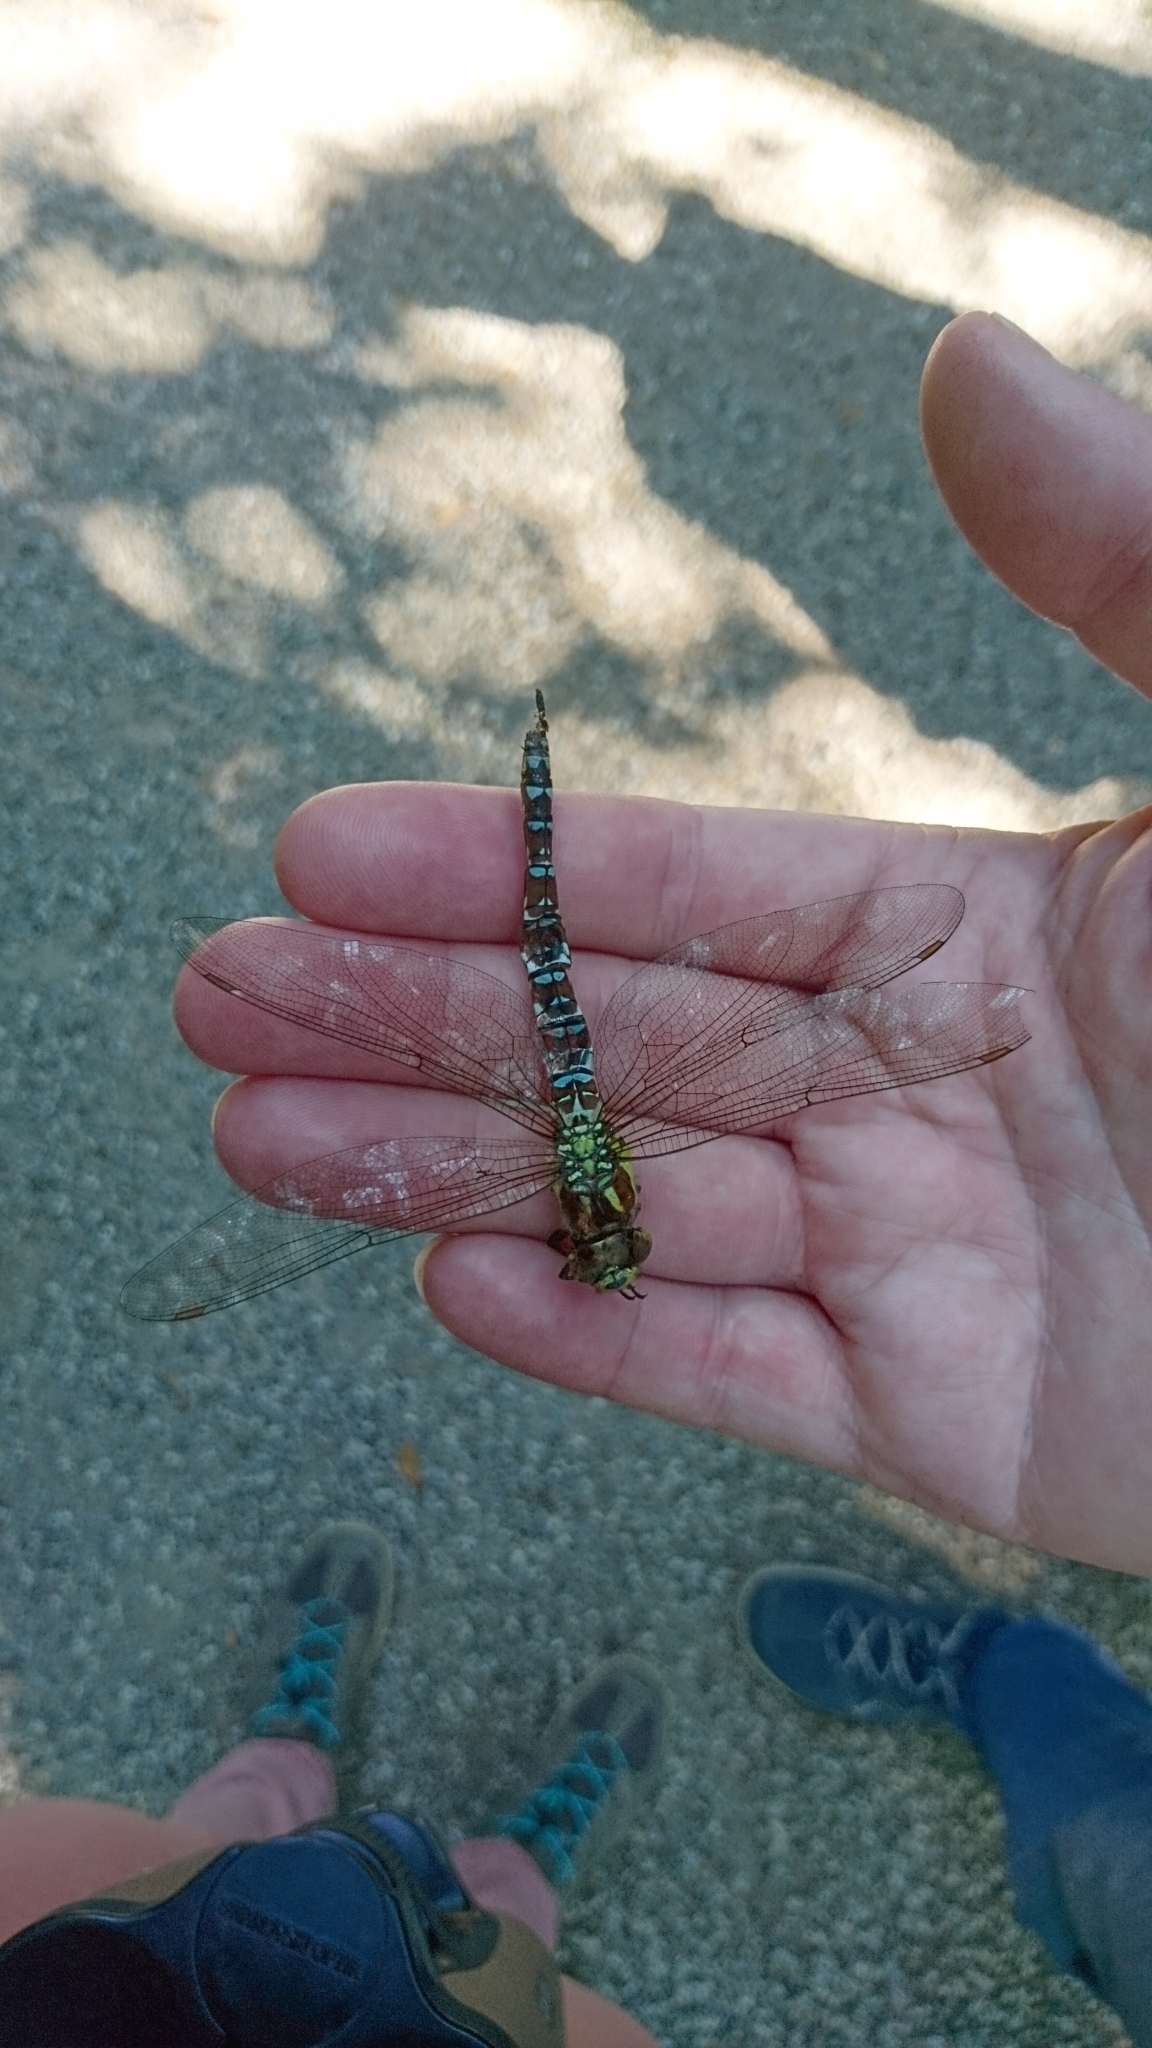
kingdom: Animalia
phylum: Arthropoda
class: Insecta
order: Odonata
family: Aeshnidae
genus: Aeshna
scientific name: Aeshna cyanea
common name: Southern hawker
